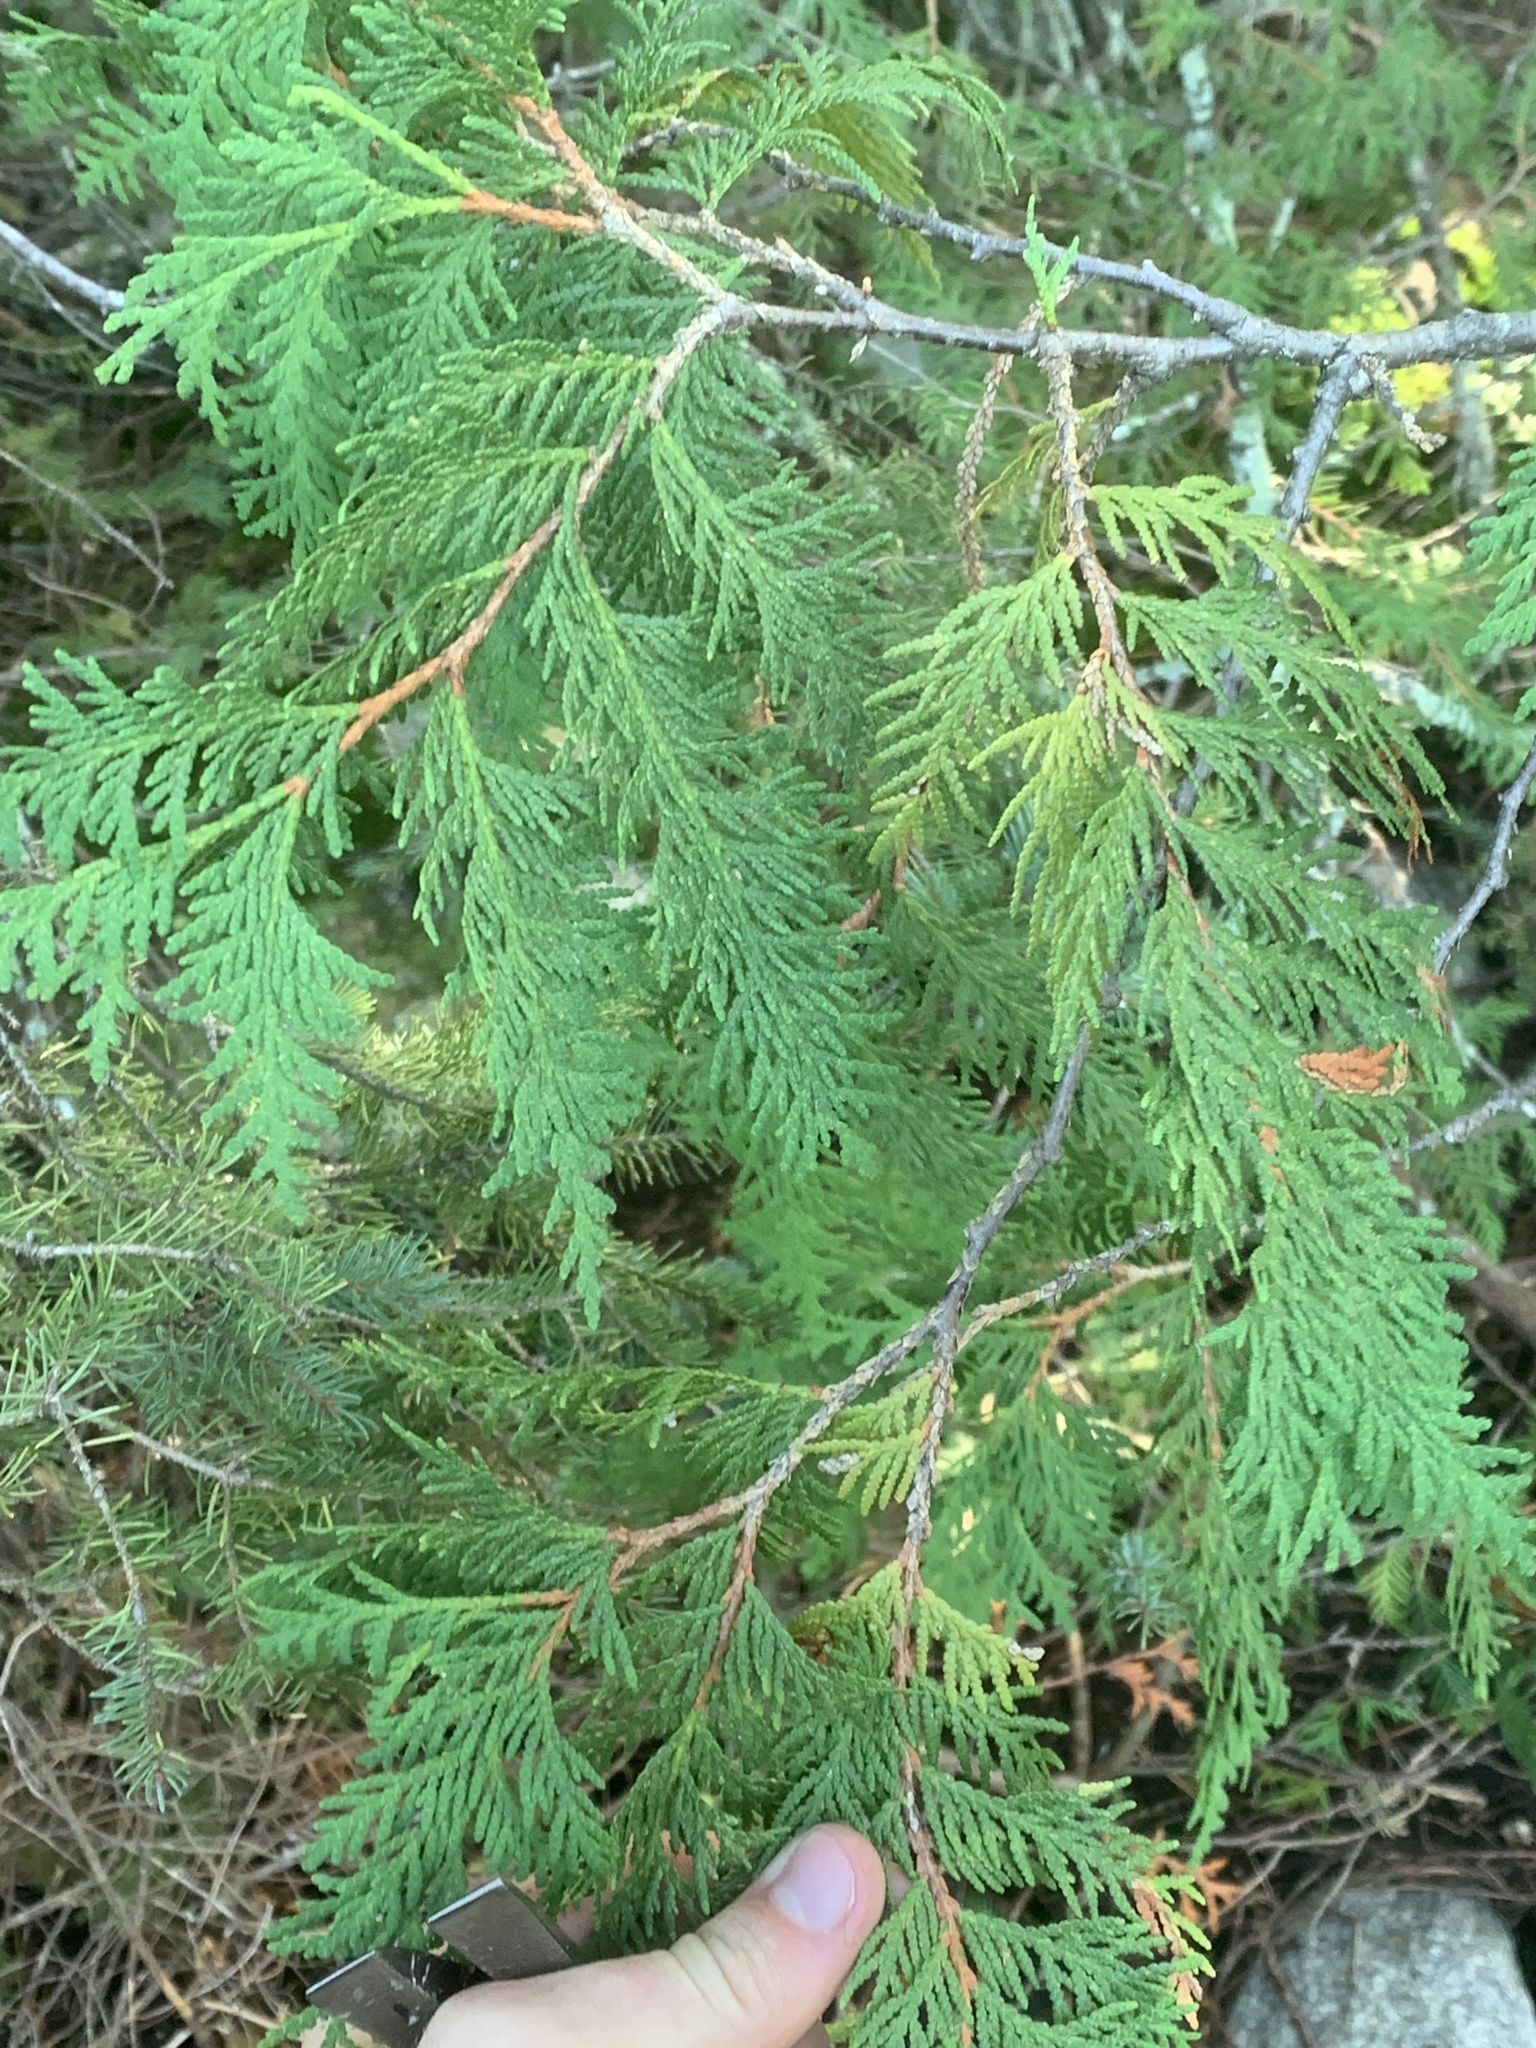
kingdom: Plantae
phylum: Tracheophyta
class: Pinopsida
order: Pinales
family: Cupressaceae
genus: Thuja
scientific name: Thuja occidentalis
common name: Northern white-cedar
